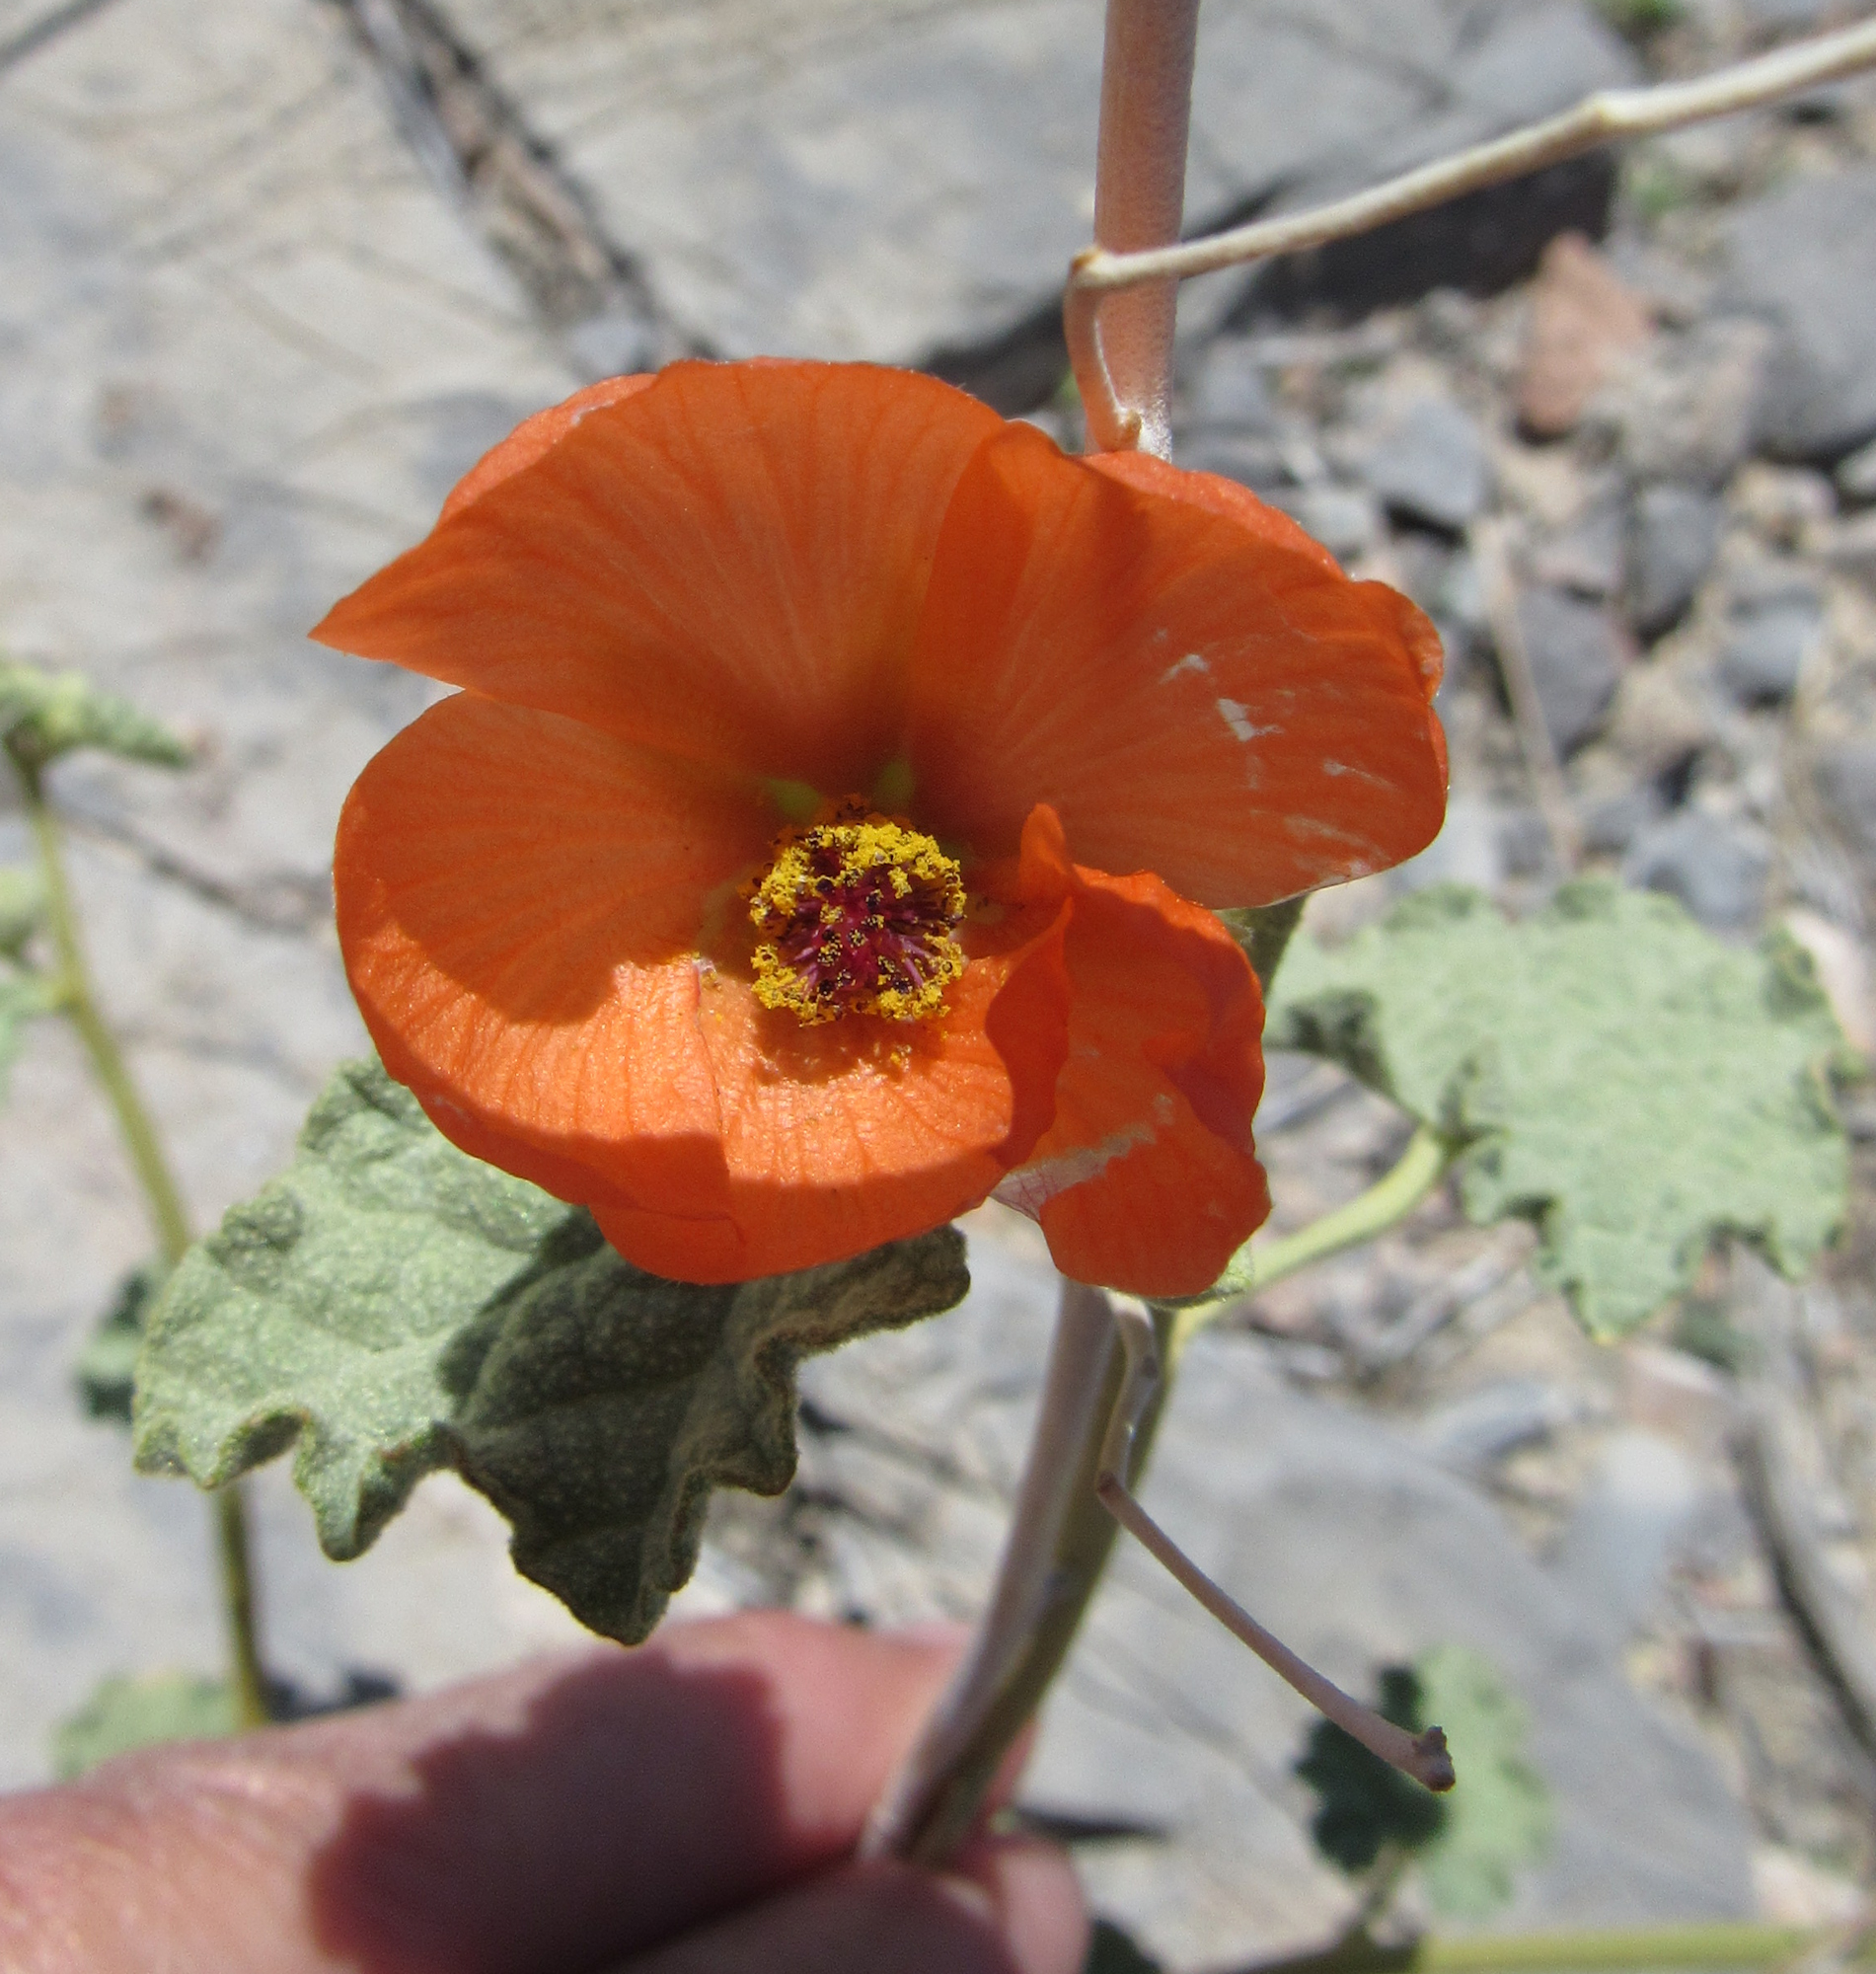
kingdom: Plantae
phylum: Tracheophyta
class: Magnoliopsida
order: Malvales
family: Malvaceae
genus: Sphaeralcea
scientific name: Sphaeralcea ambigua
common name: Apricot globe-mallow
